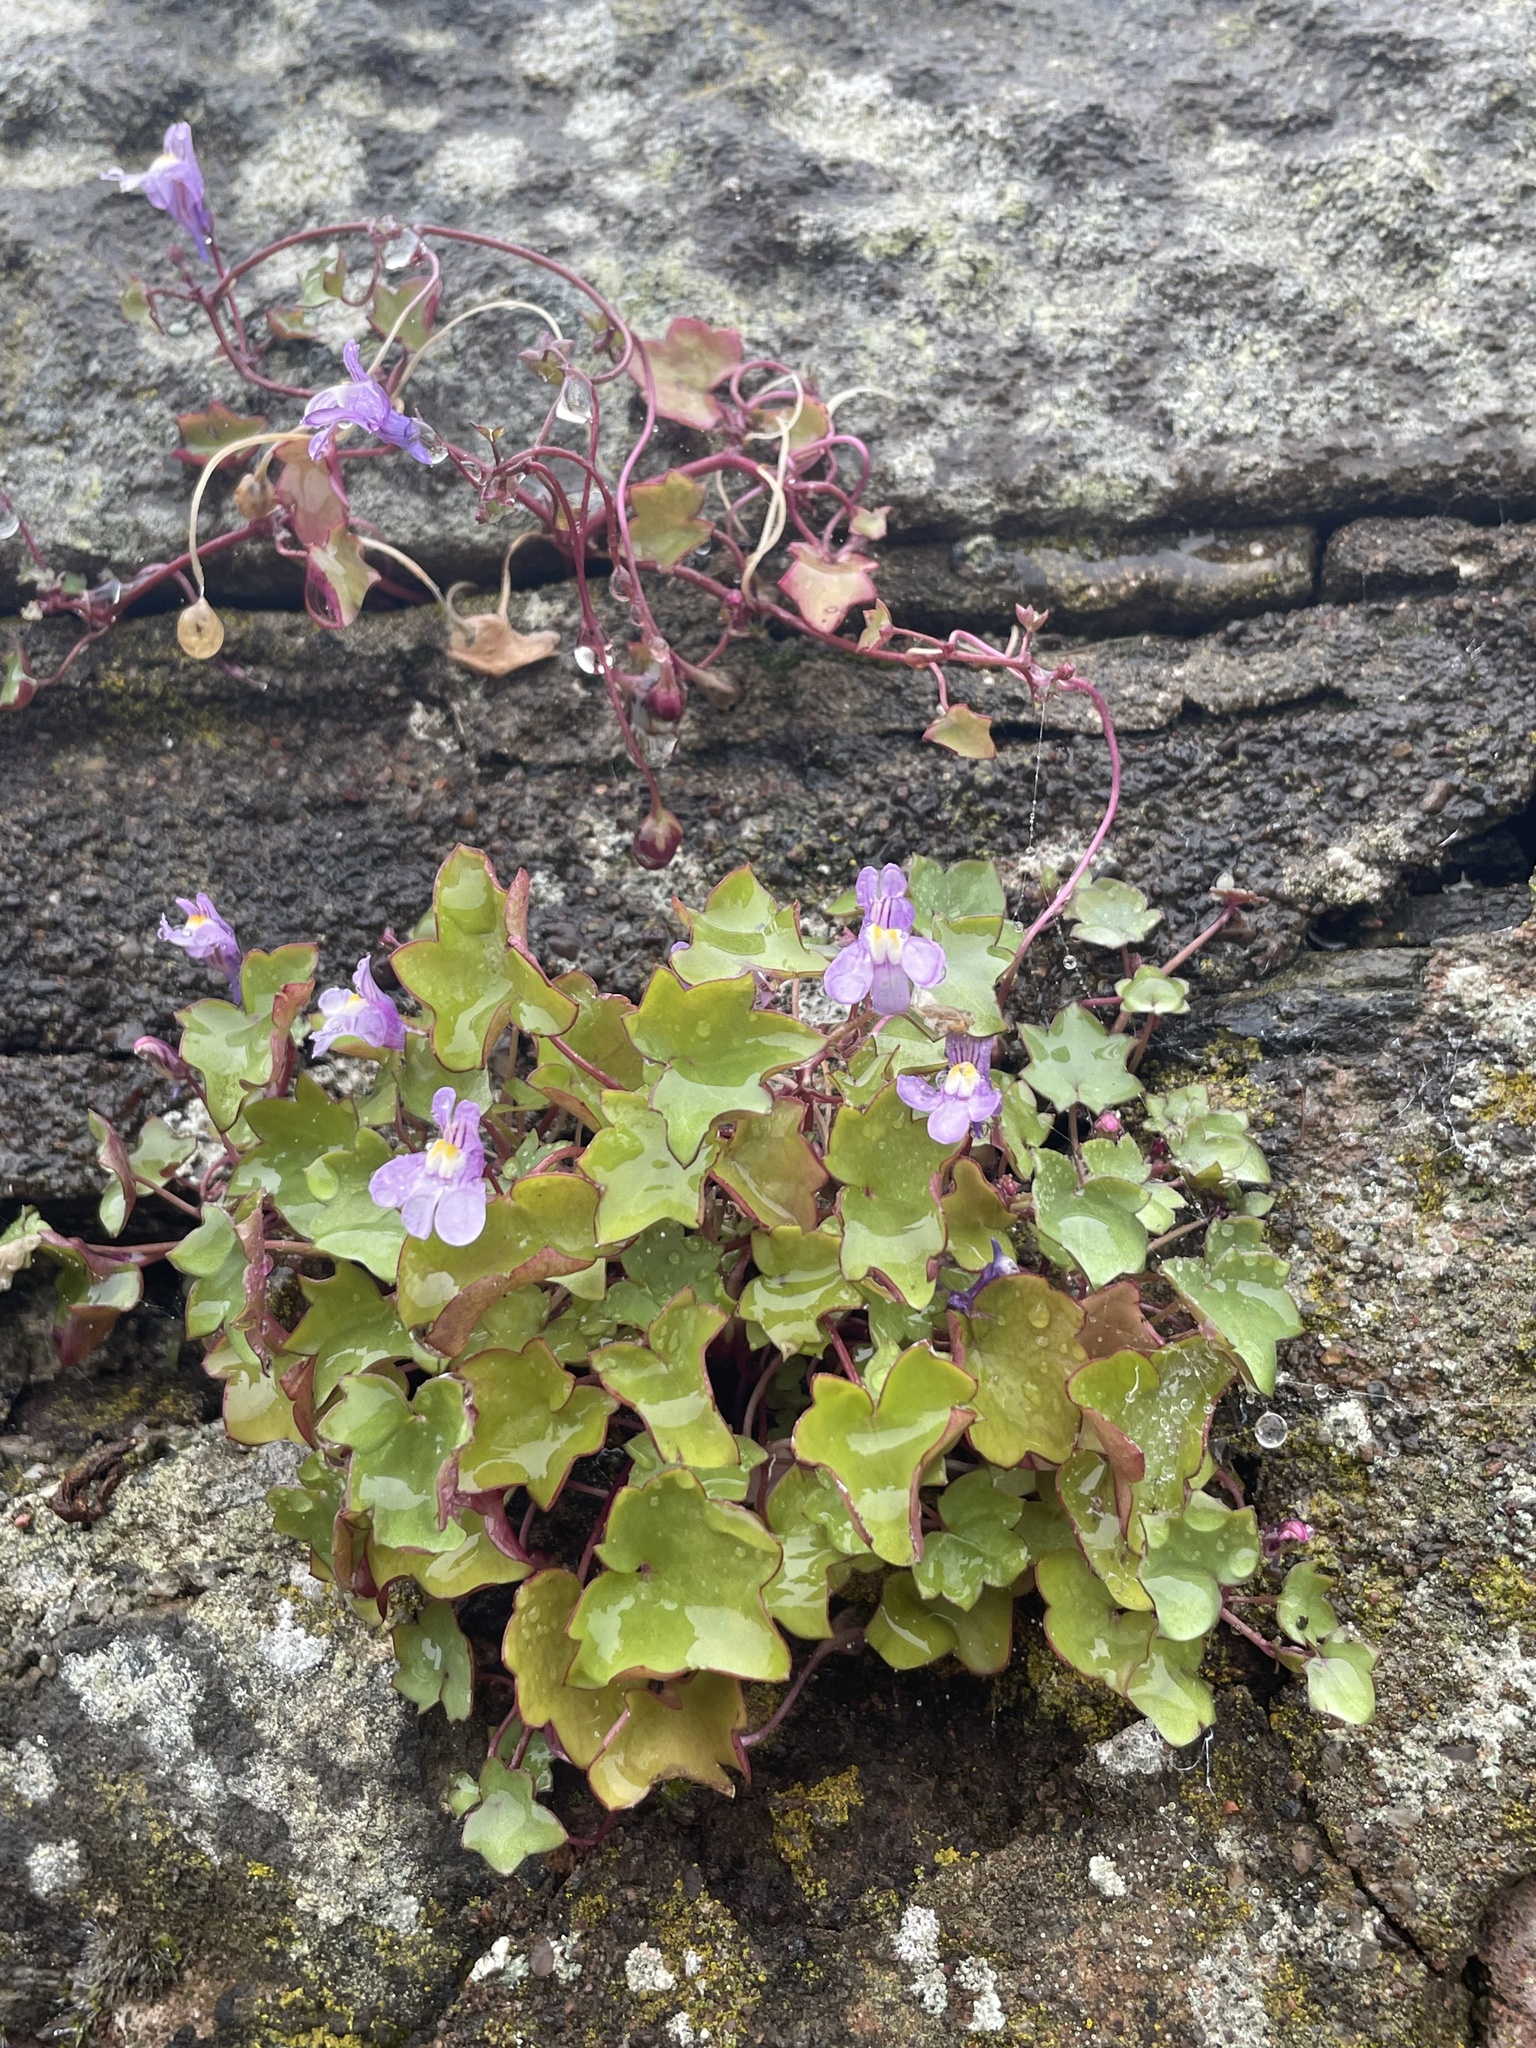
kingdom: Plantae
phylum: Tracheophyta
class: Magnoliopsida
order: Lamiales
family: Plantaginaceae
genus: Cymbalaria
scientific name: Cymbalaria muralis
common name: Ivy-leaved toadflax
